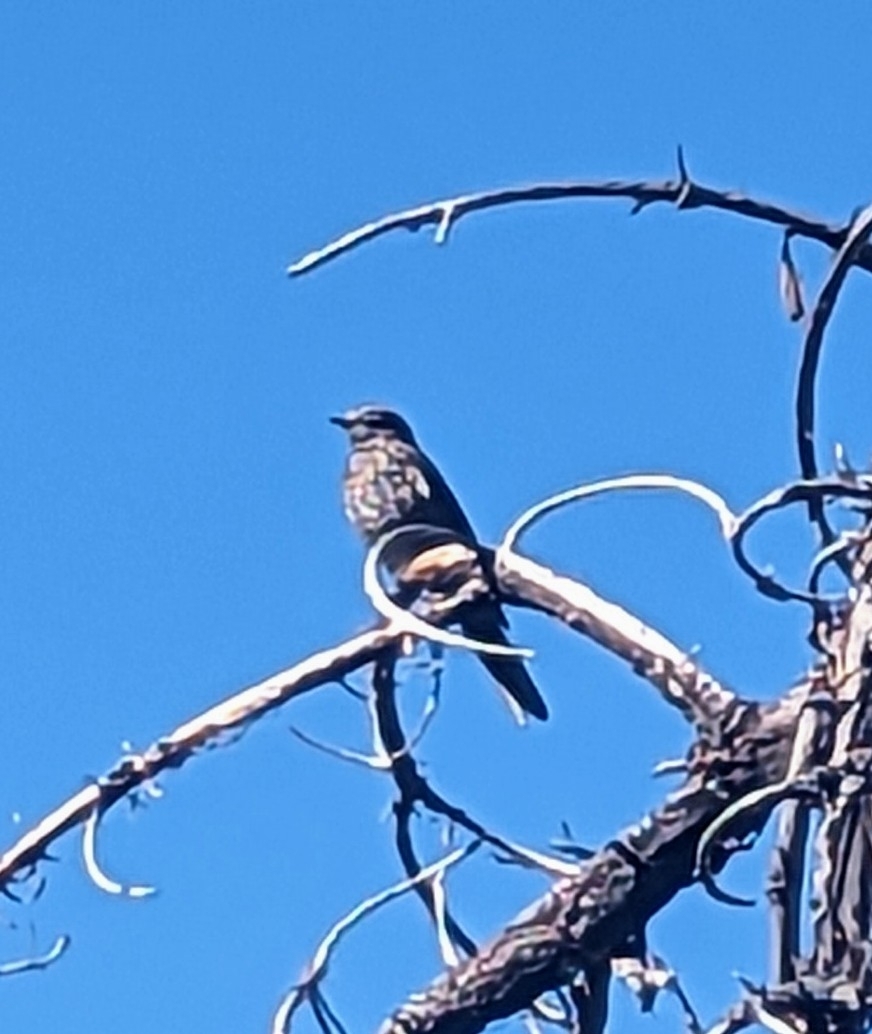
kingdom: Animalia
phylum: Chordata
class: Aves
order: Passeriformes
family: Turdidae
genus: Myadestes
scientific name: Myadestes townsendi
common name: Townsend's solitaire
